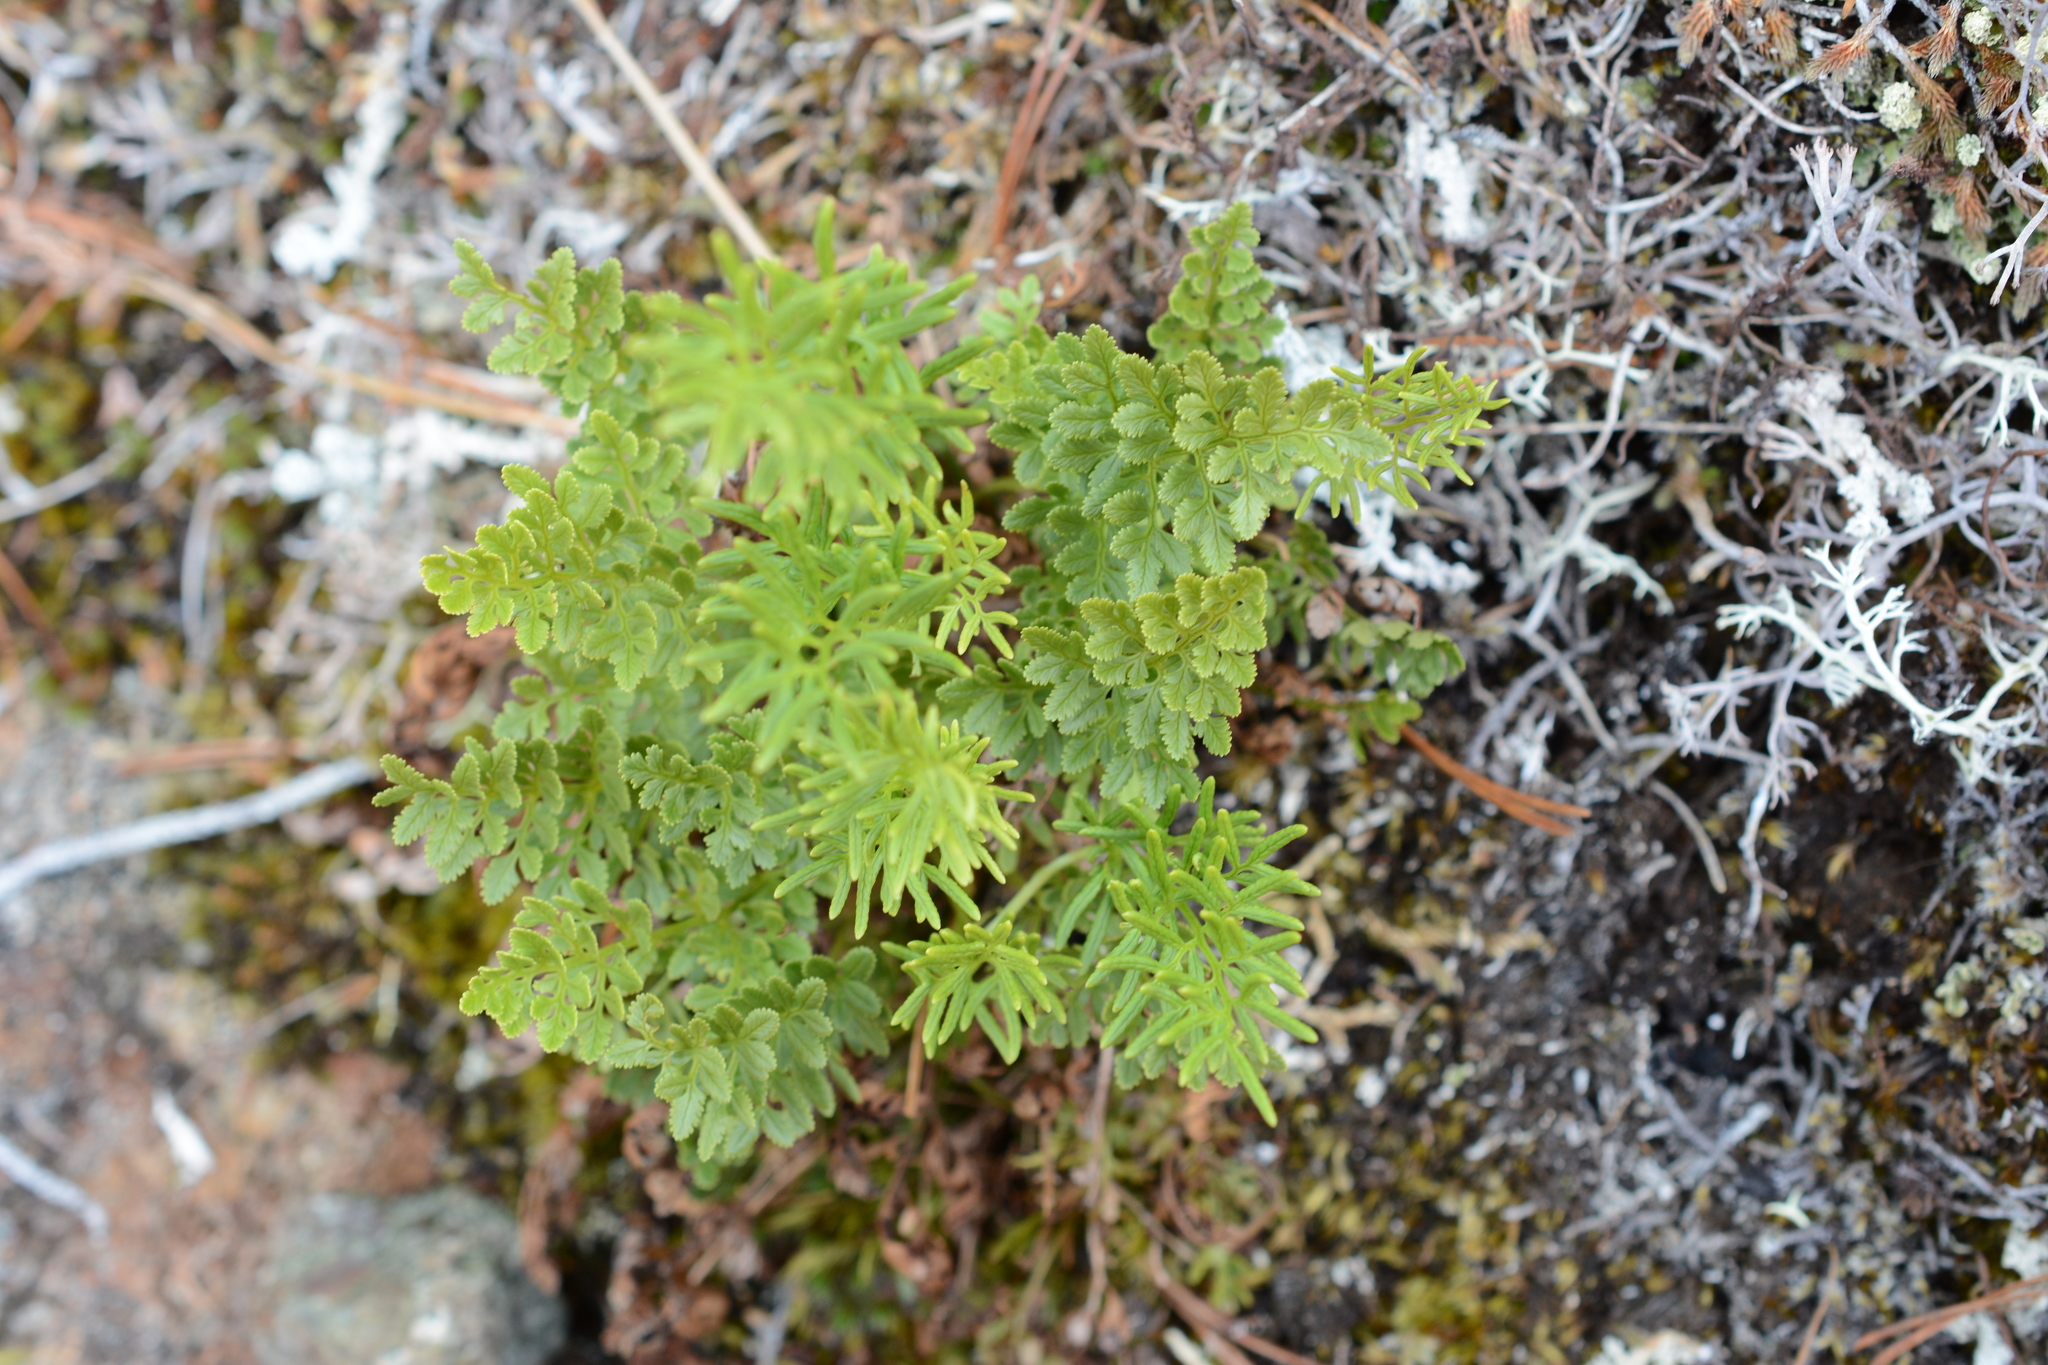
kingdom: Plantae
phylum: Tracheophyta
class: Polypodiopsida
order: Polypodiales
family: Pteridaceae
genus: Cryptogramma
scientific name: Cryptogramma acrostichoides
